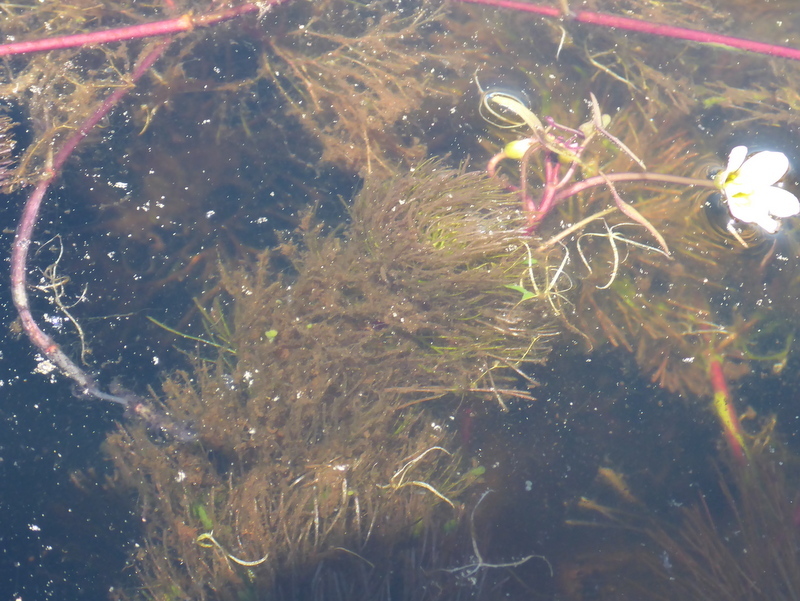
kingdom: Plantae
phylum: Tracheophyta
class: Magnoliopsida
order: Nymphaeales
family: Cabombaceae
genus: Cabomba
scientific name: Cabomba caroliniana
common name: Fanwort
